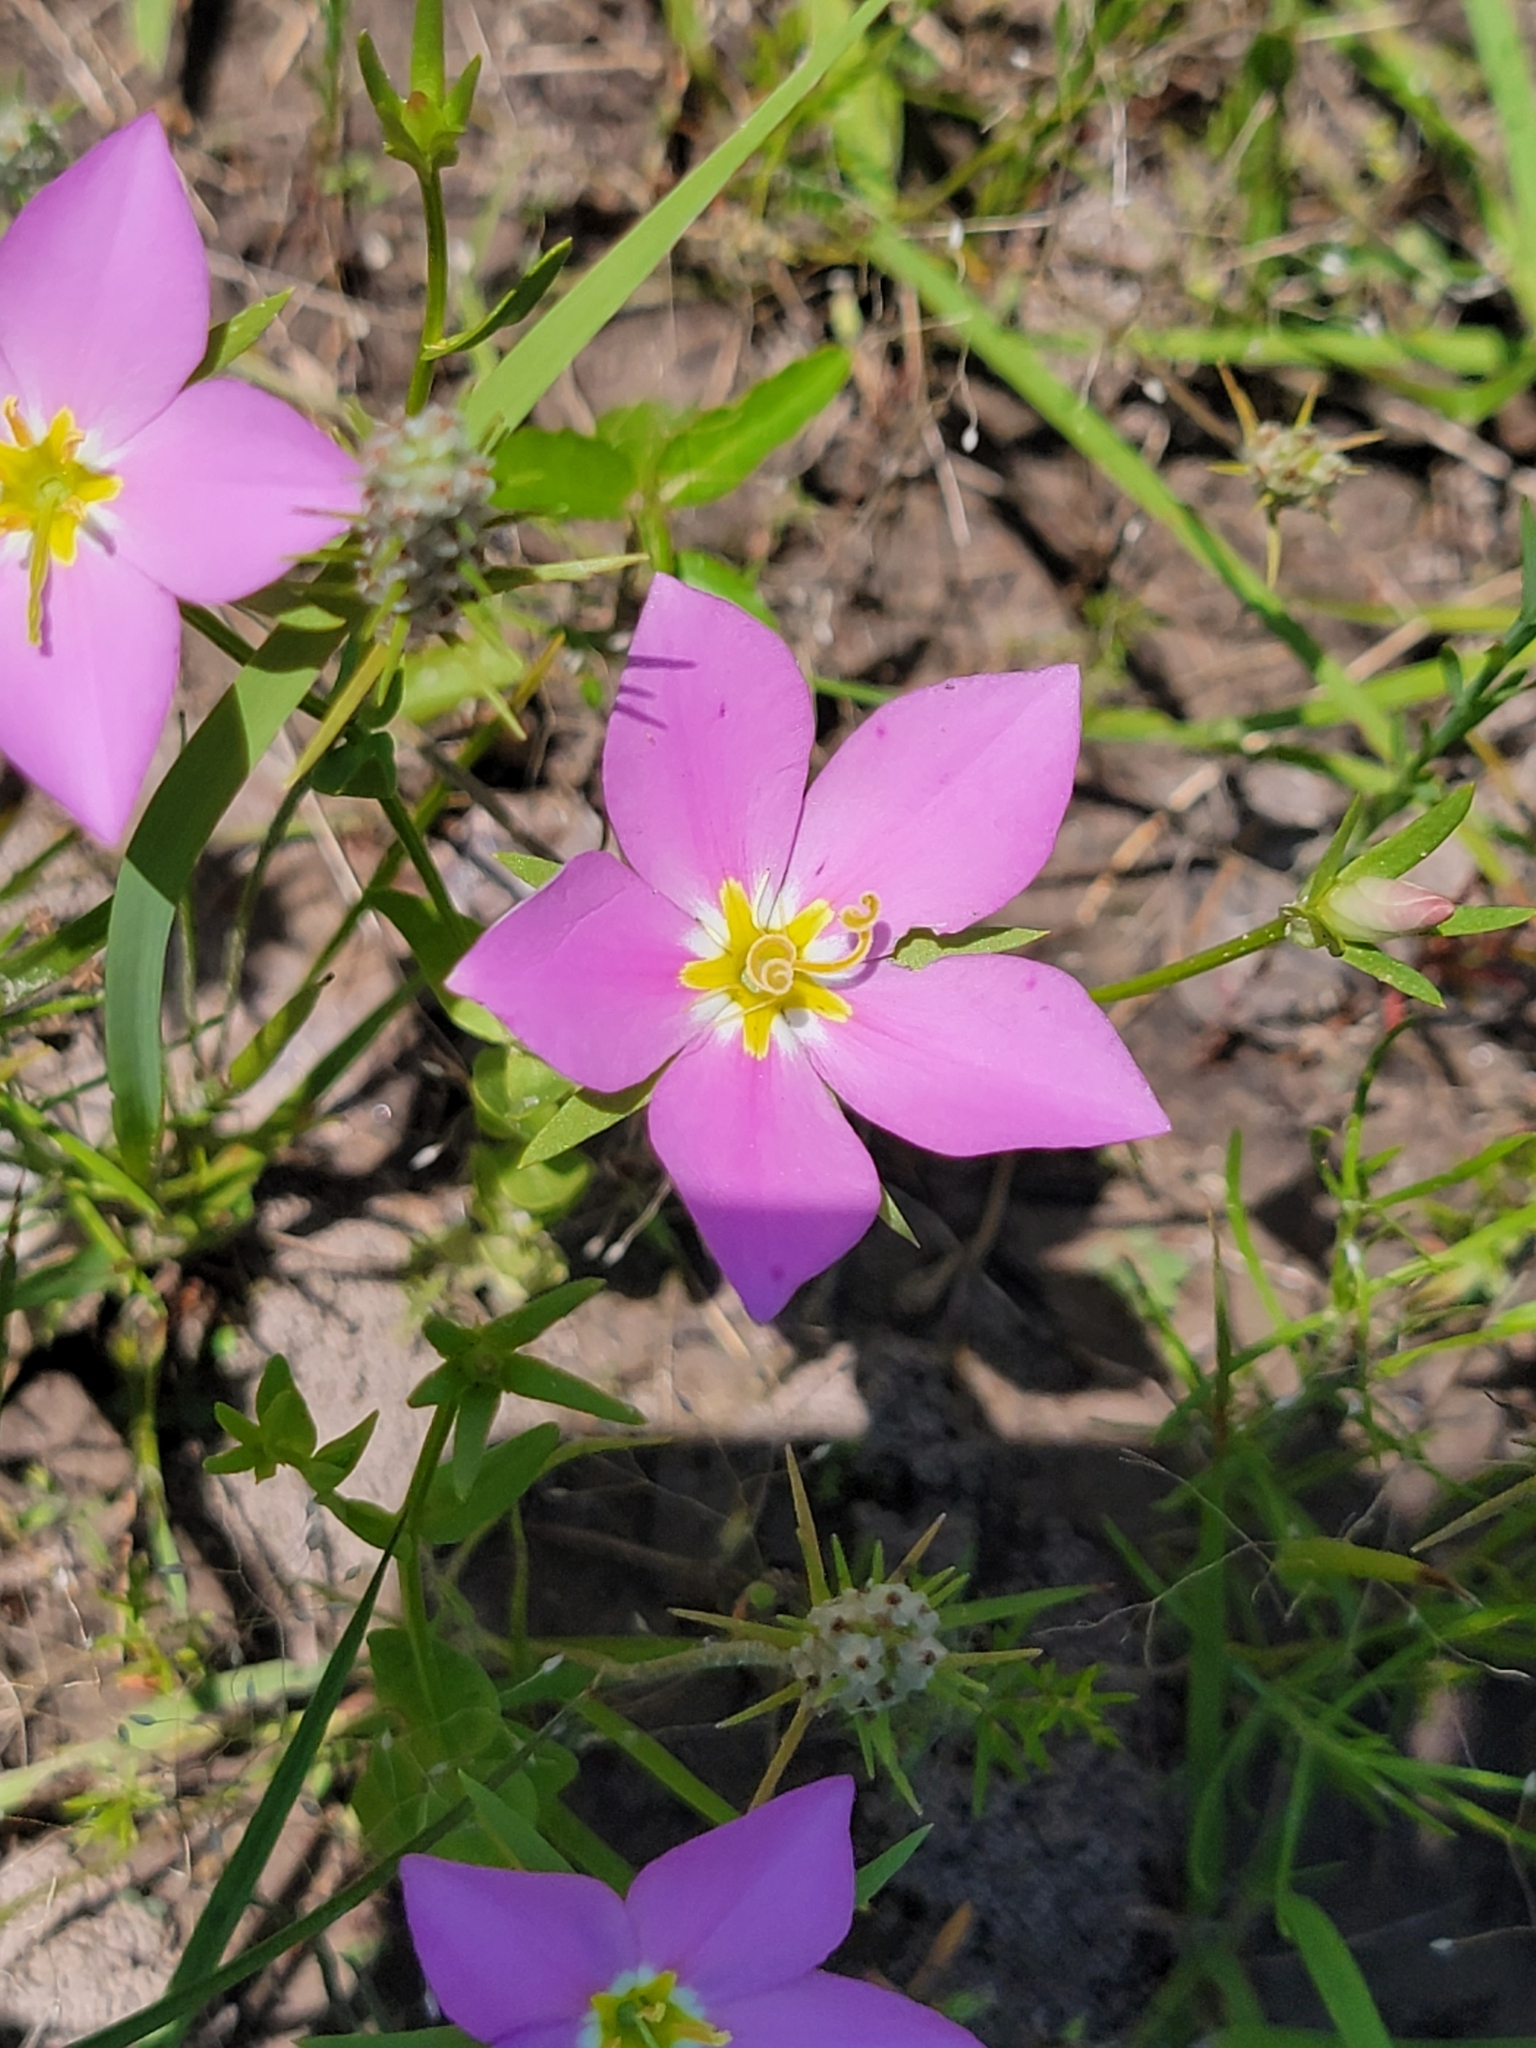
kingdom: Plantae
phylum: Tracheophyta
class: Magnoliopsida
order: Gentianales
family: Gentianaceae
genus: Sabatia
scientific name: Sabatia campestris
